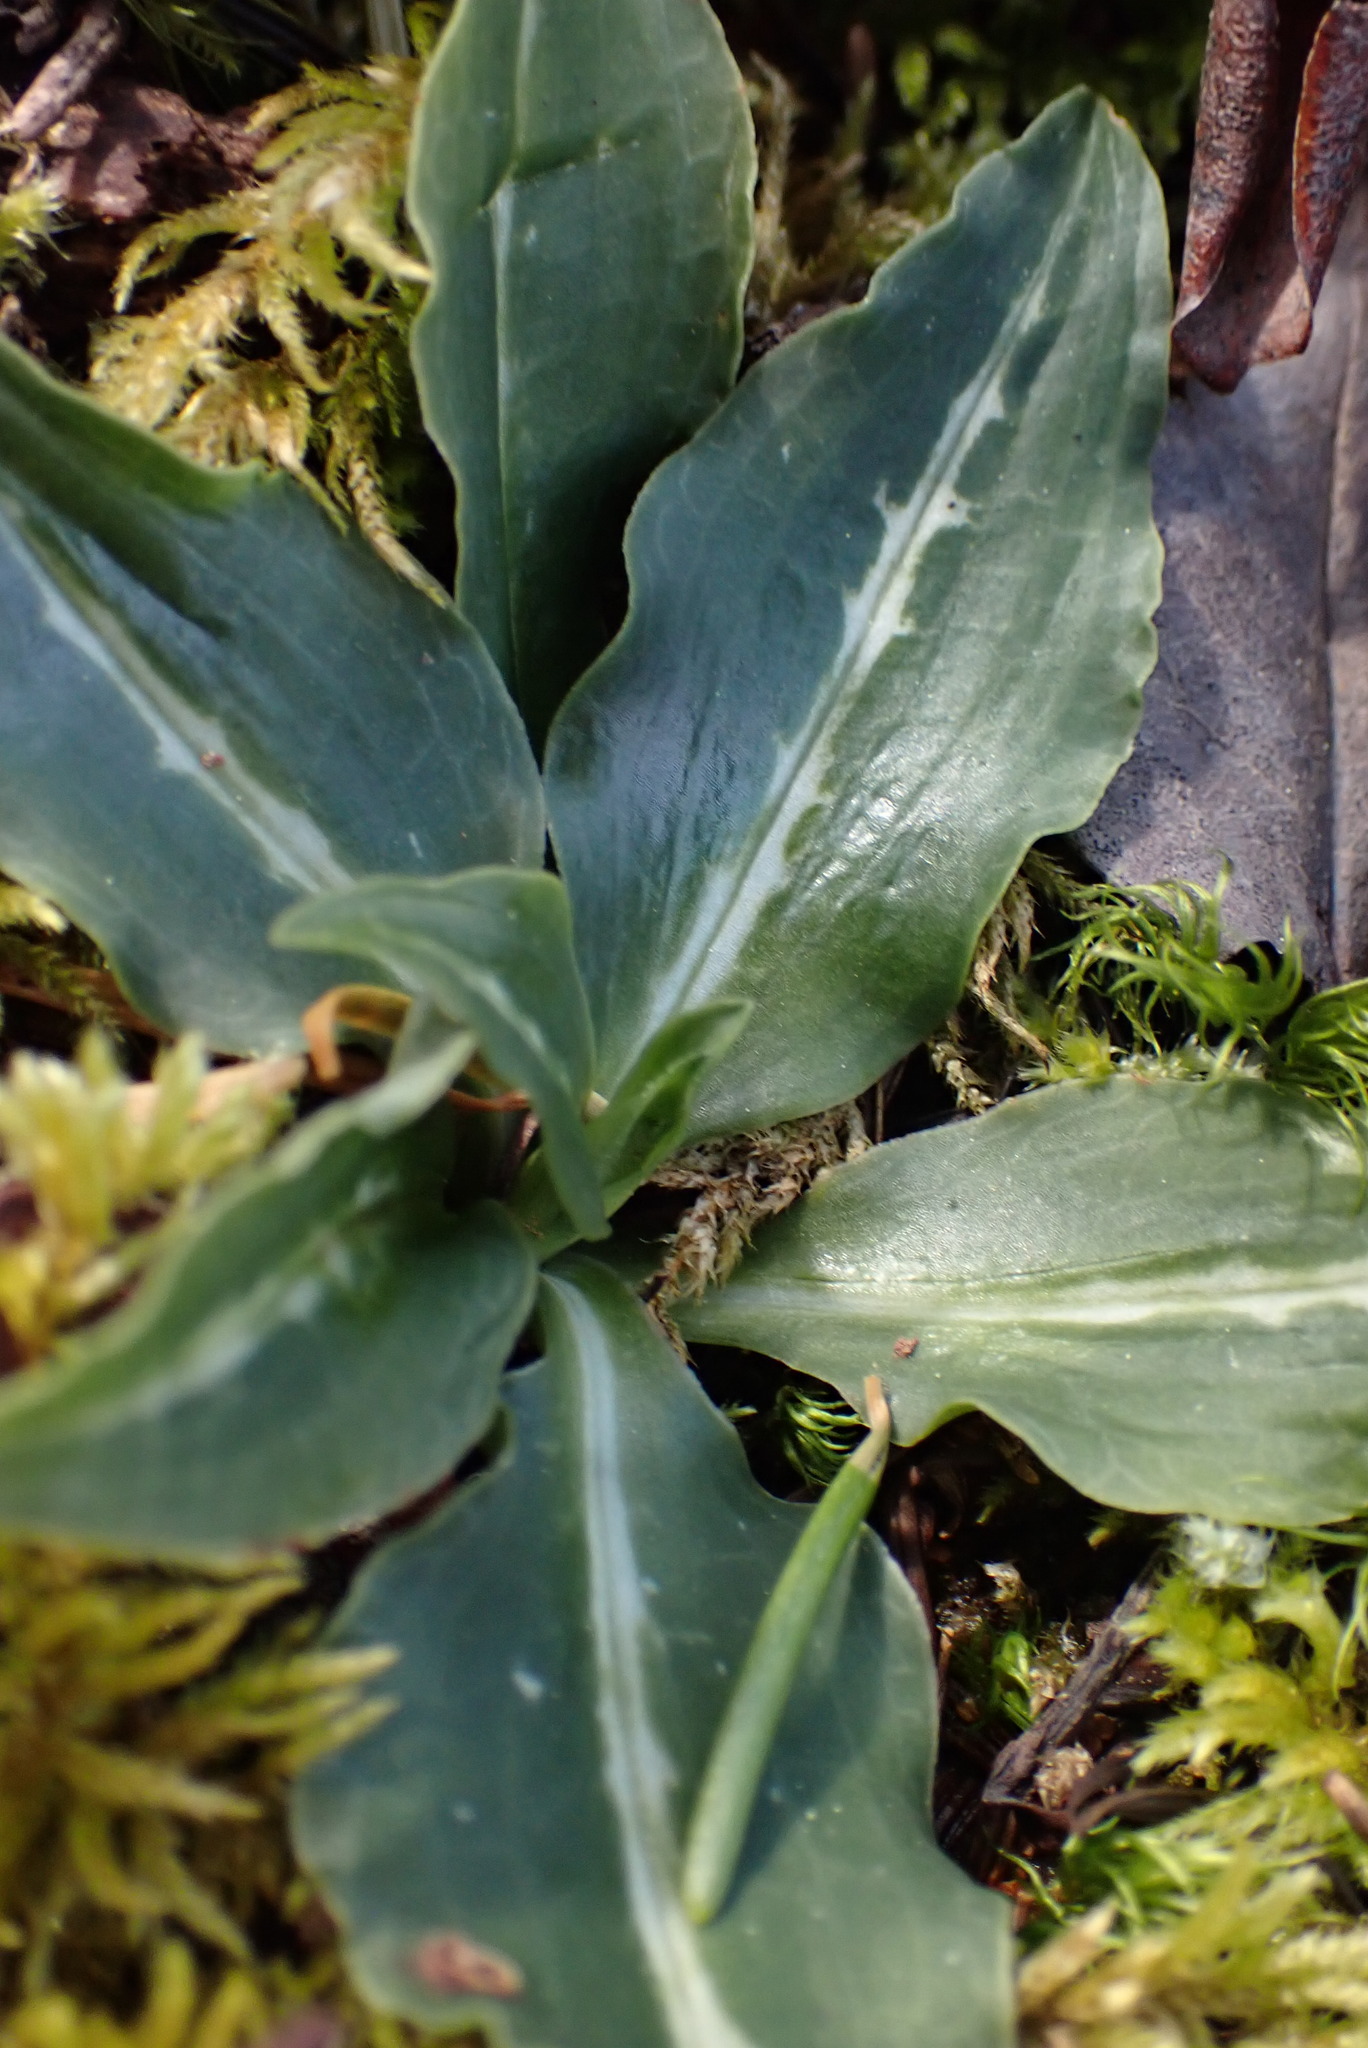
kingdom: Plantae
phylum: Tracheophyta
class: Liliopsida
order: Asparagales
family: Orchidaceae
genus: Goodyera
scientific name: Goodyera oblongifolia
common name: Giant rattlesnake-plantain
